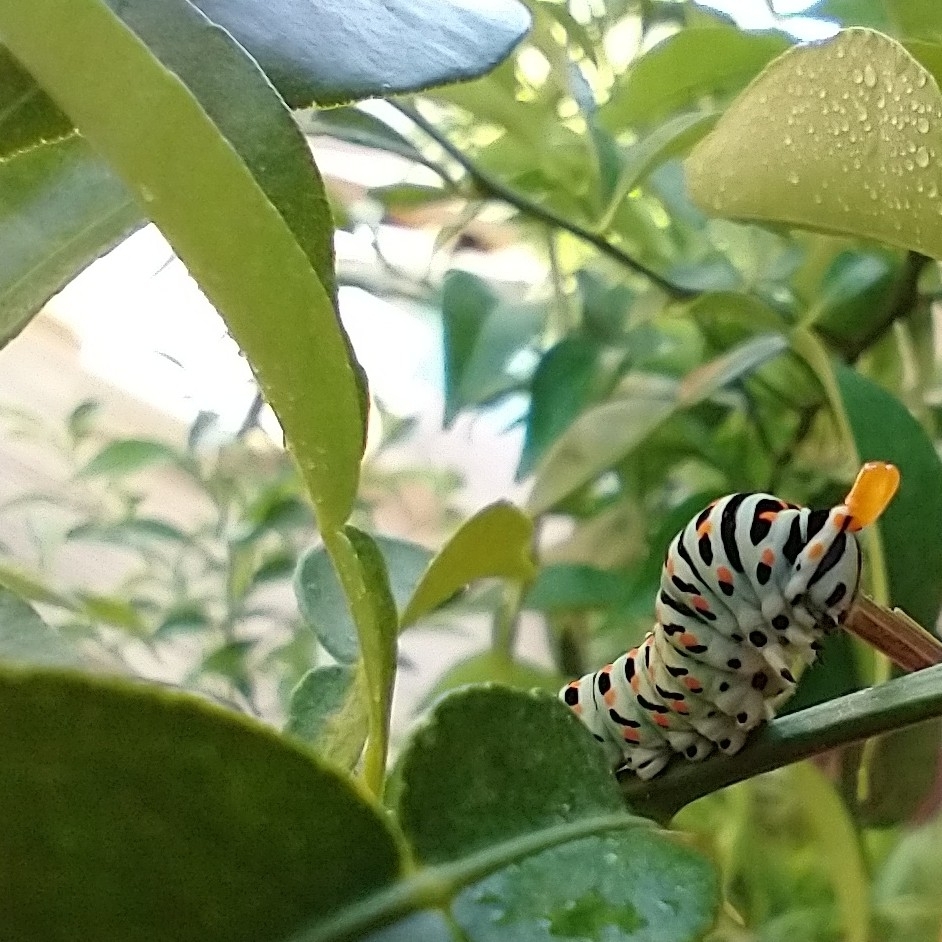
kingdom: Animalia
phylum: Arthropoda
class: Insecta
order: Lepidoptera
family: Papilionidae
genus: Papilio
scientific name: Papilio machaon
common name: Swallowtail
